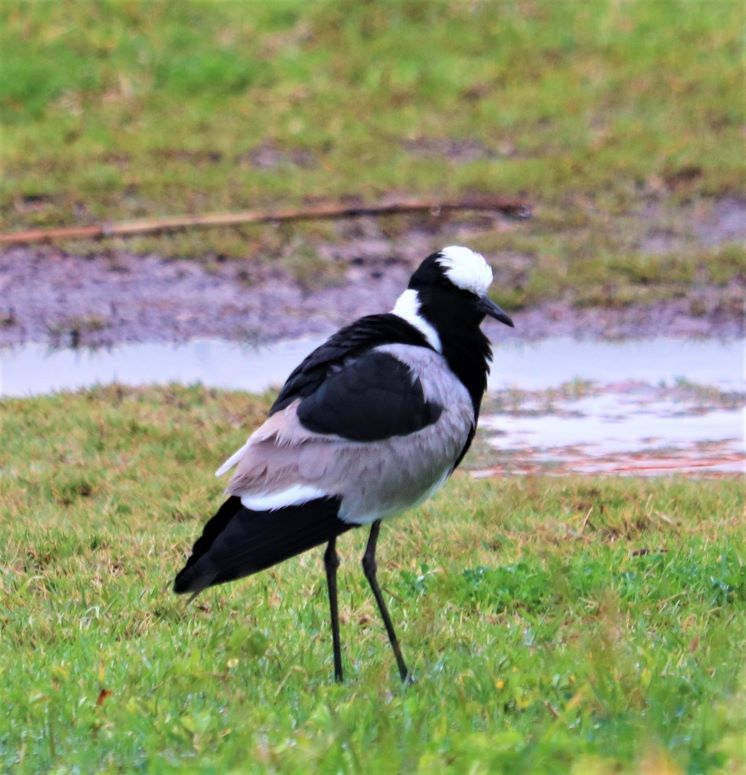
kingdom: Animalia
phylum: Chordata
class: Aves
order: Charadriiformes
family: Charadriidae
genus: Vanellus
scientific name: Vanellus armatus
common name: Blacksmith lapwing
